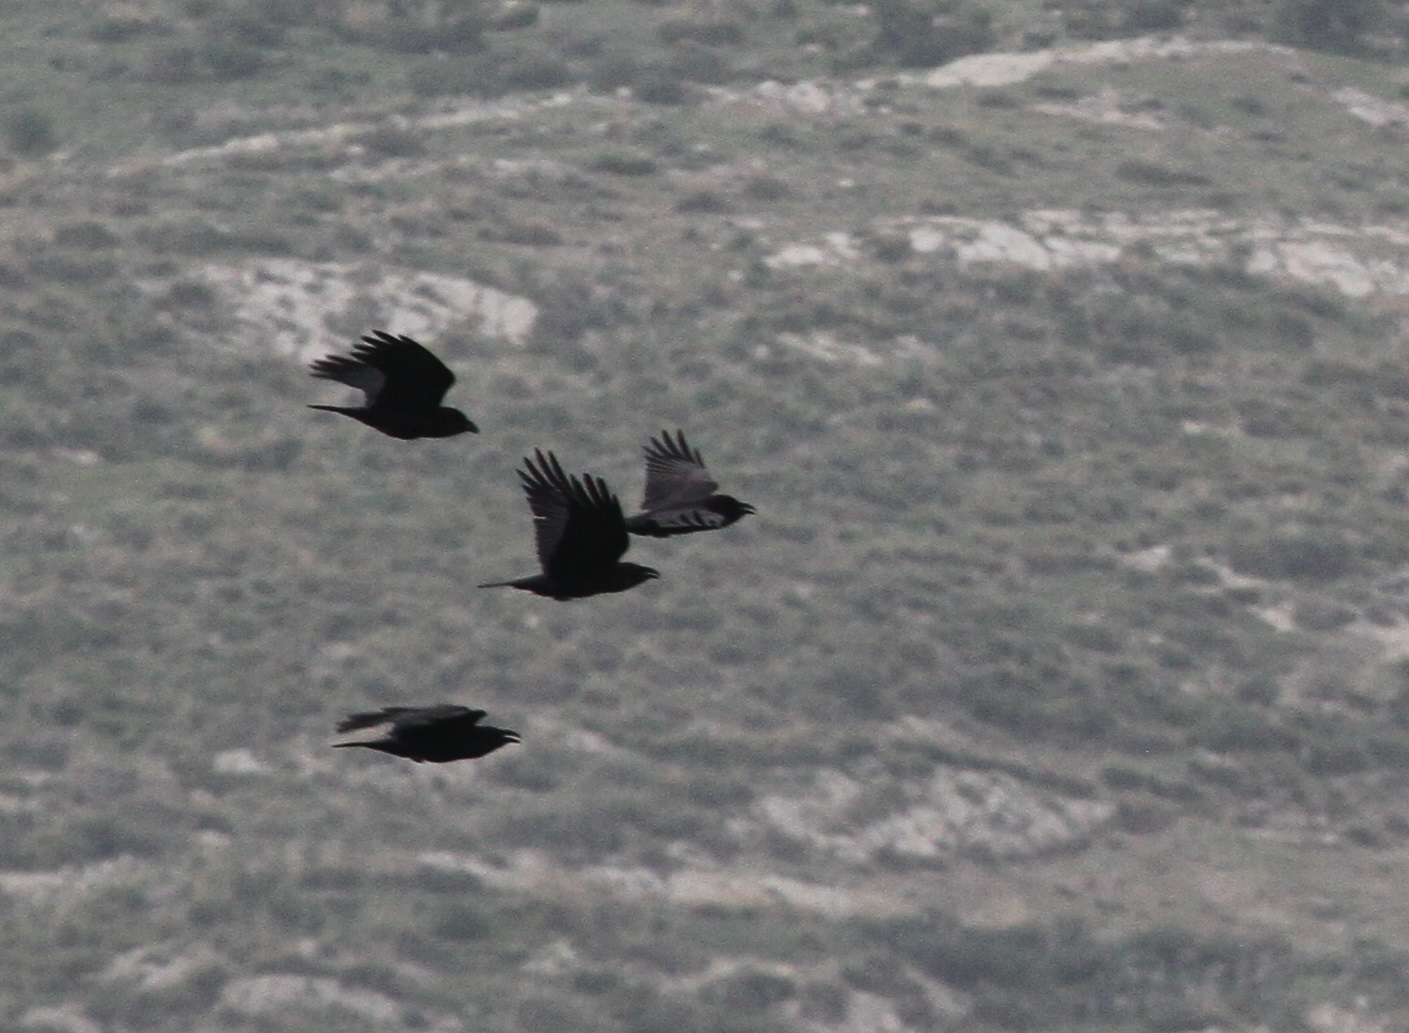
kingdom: Animalia
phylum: Chordata
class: Aves
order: Passeriformes
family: Corvidae
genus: Corvus
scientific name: Corvus corax
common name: Common raven
